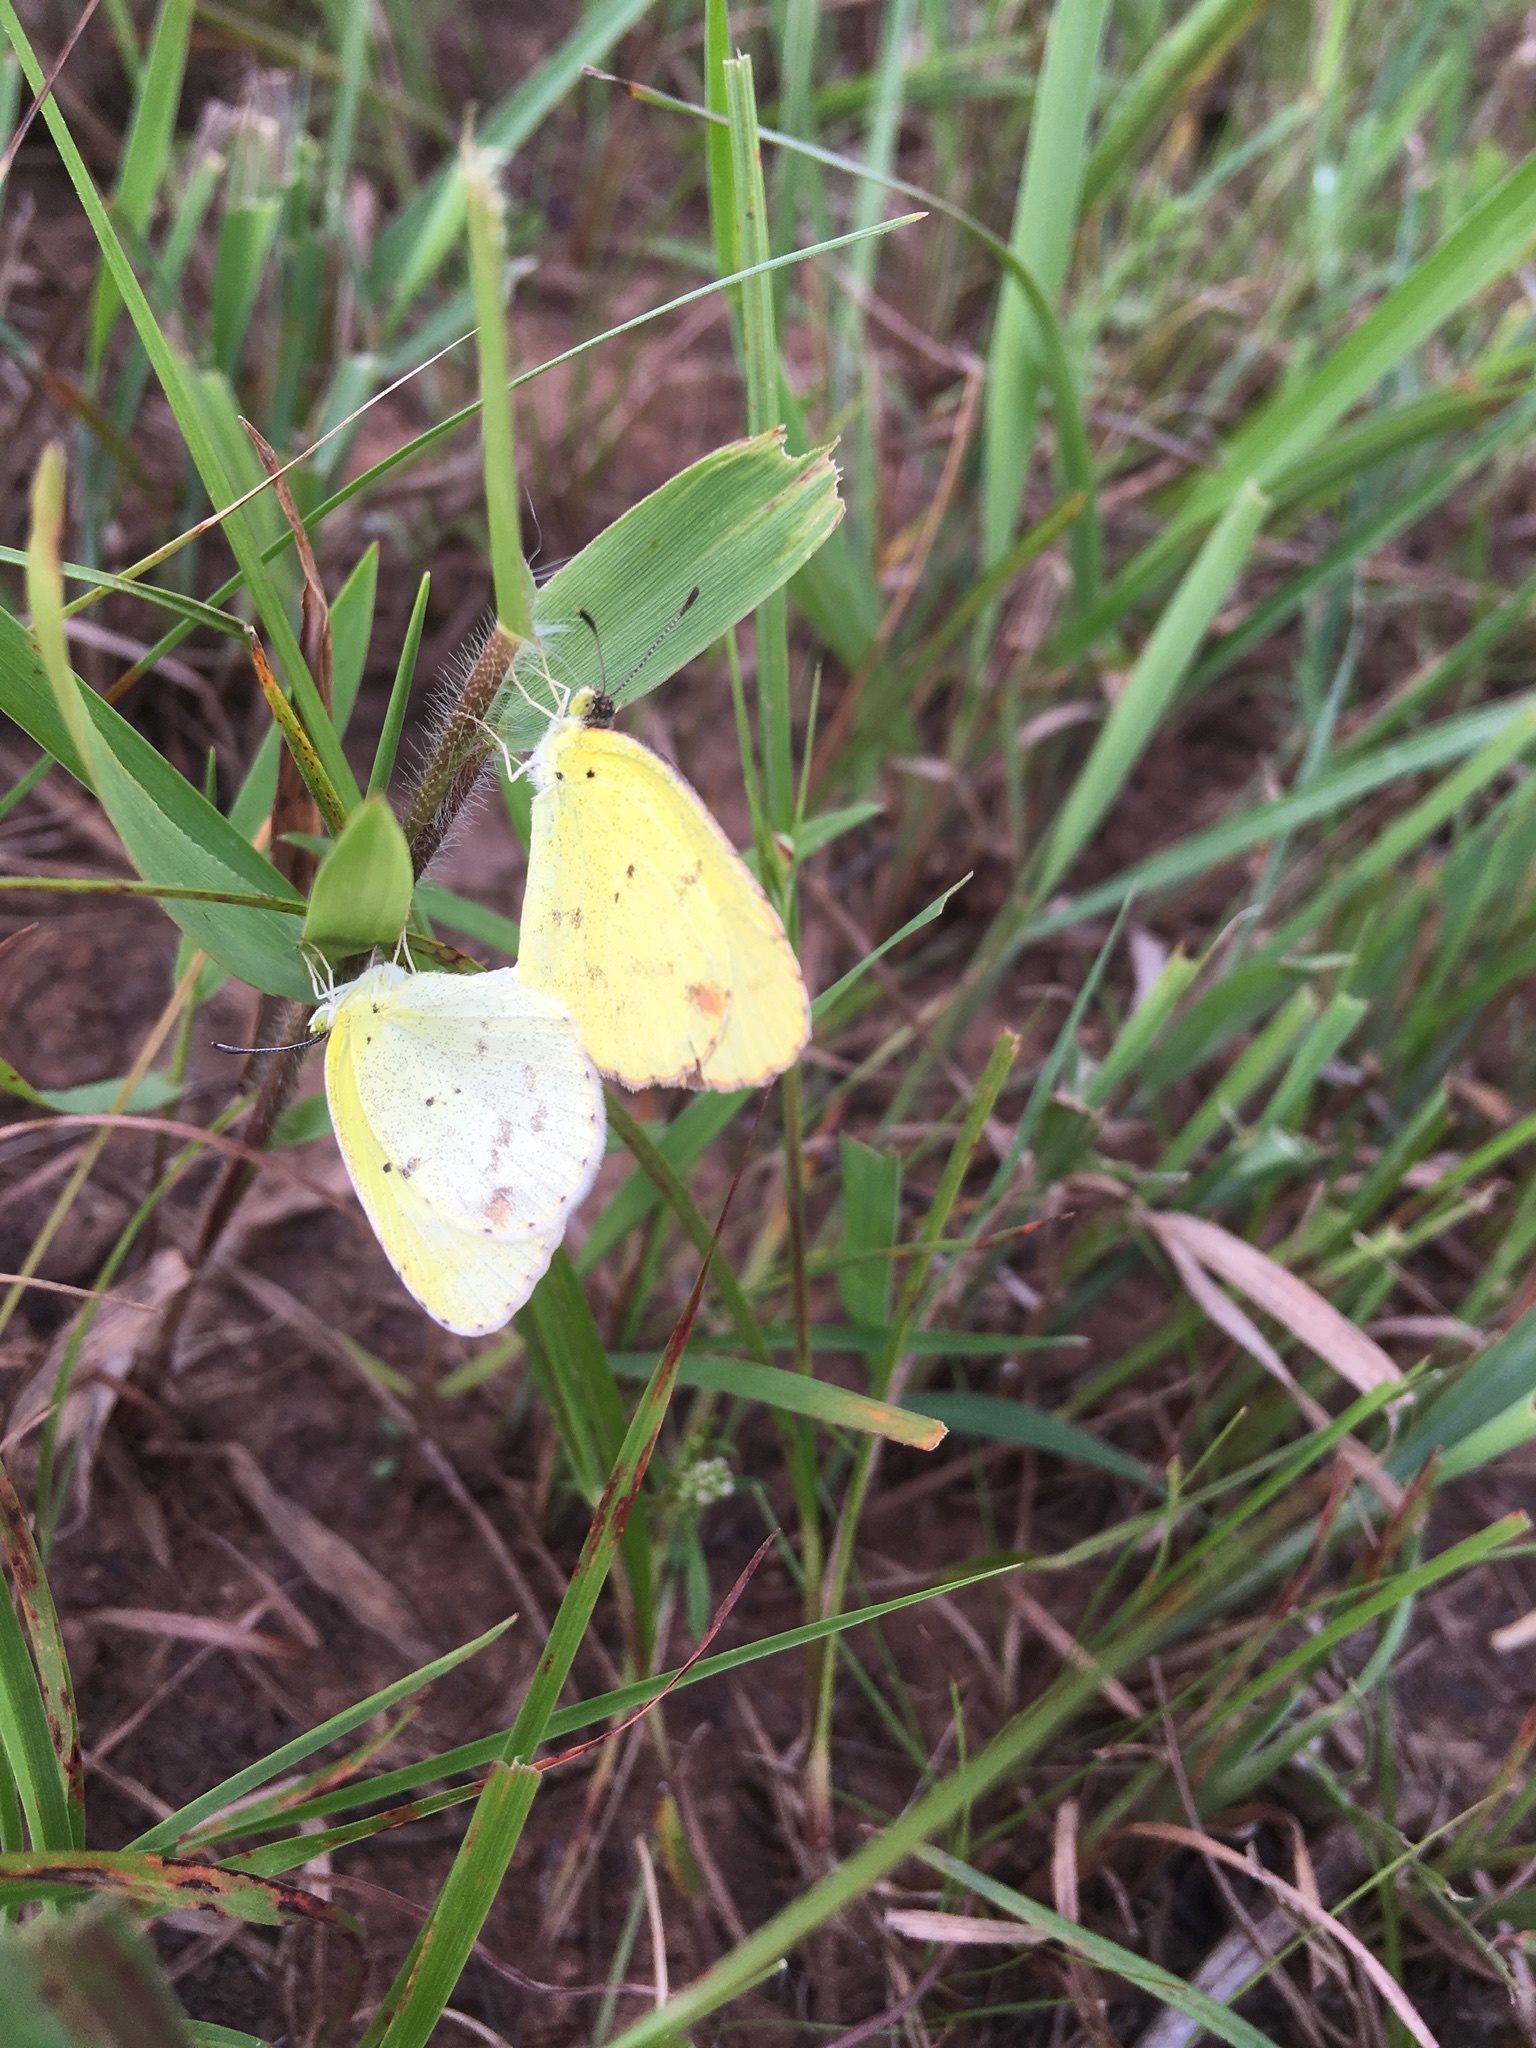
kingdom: Animalia
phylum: Arthropoda
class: Insecta
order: Lepidoptera
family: Pieridae
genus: Pyrisitia
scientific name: Pyrisitia lisa
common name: Little yellow
